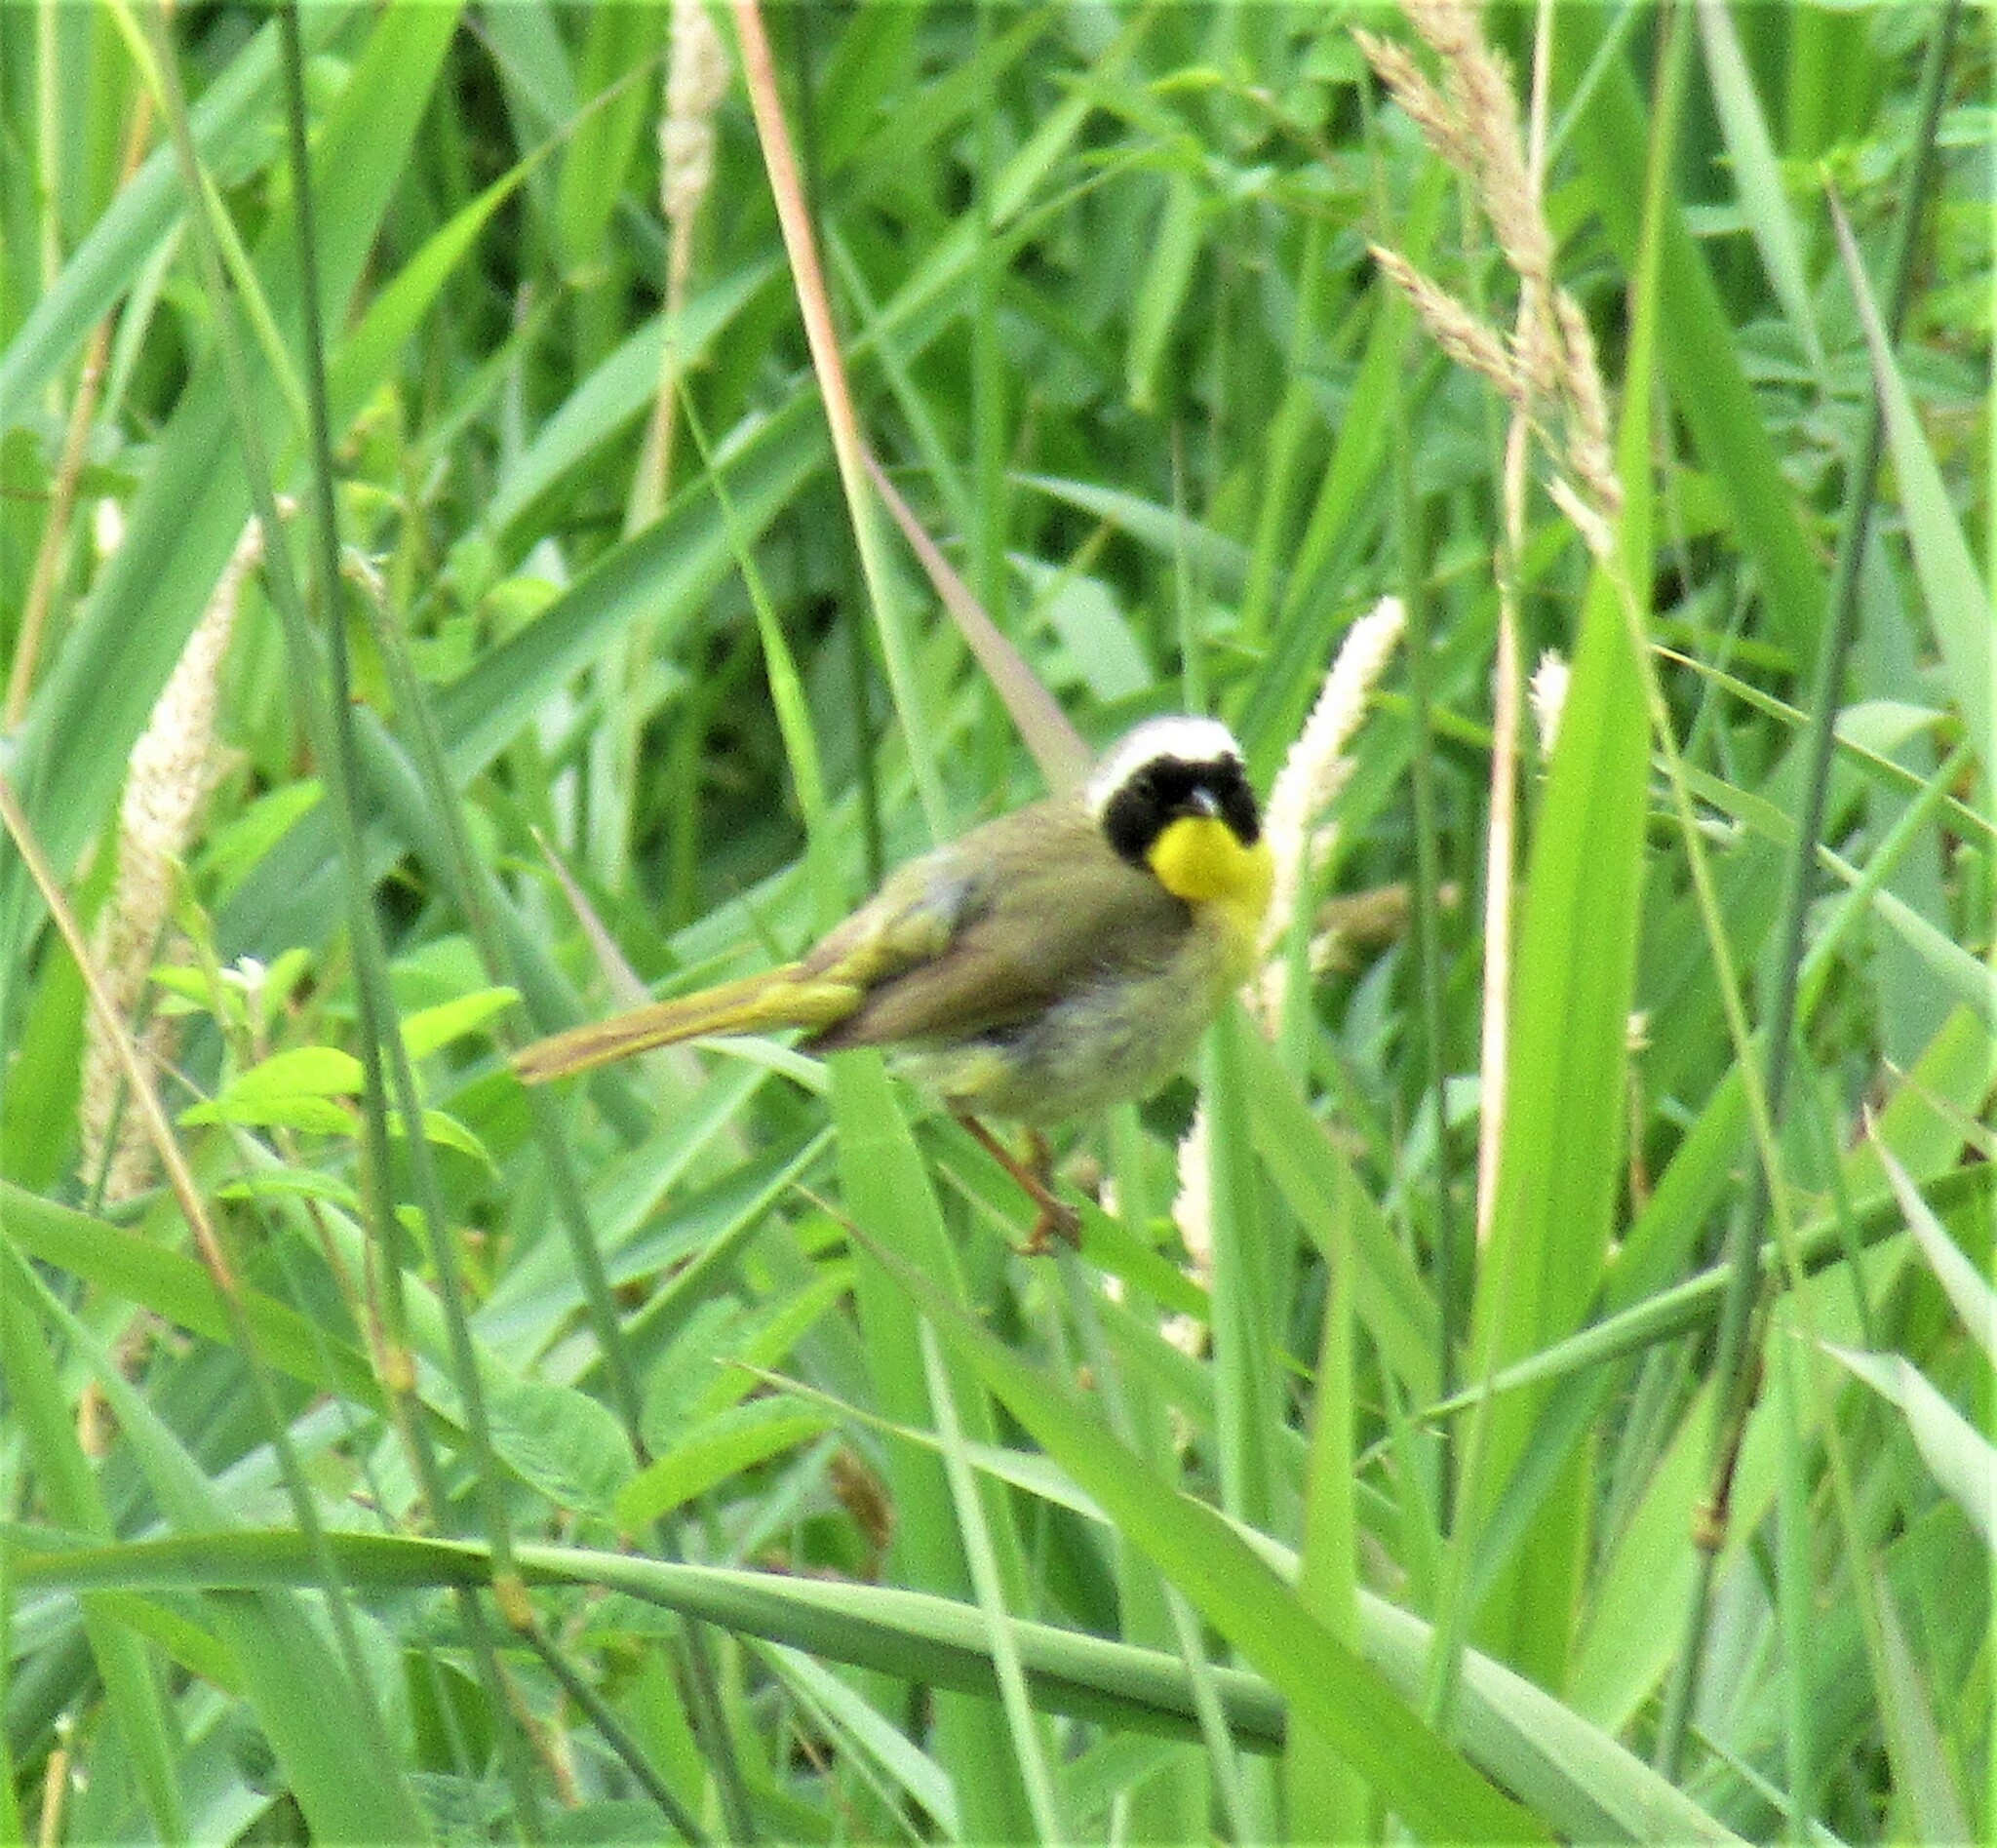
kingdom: Animalia
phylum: Chordata
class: Aves
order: Passeriformes
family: Parulidae
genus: Geothlypis
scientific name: Geothlypis trichas
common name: Common yellowthroat
